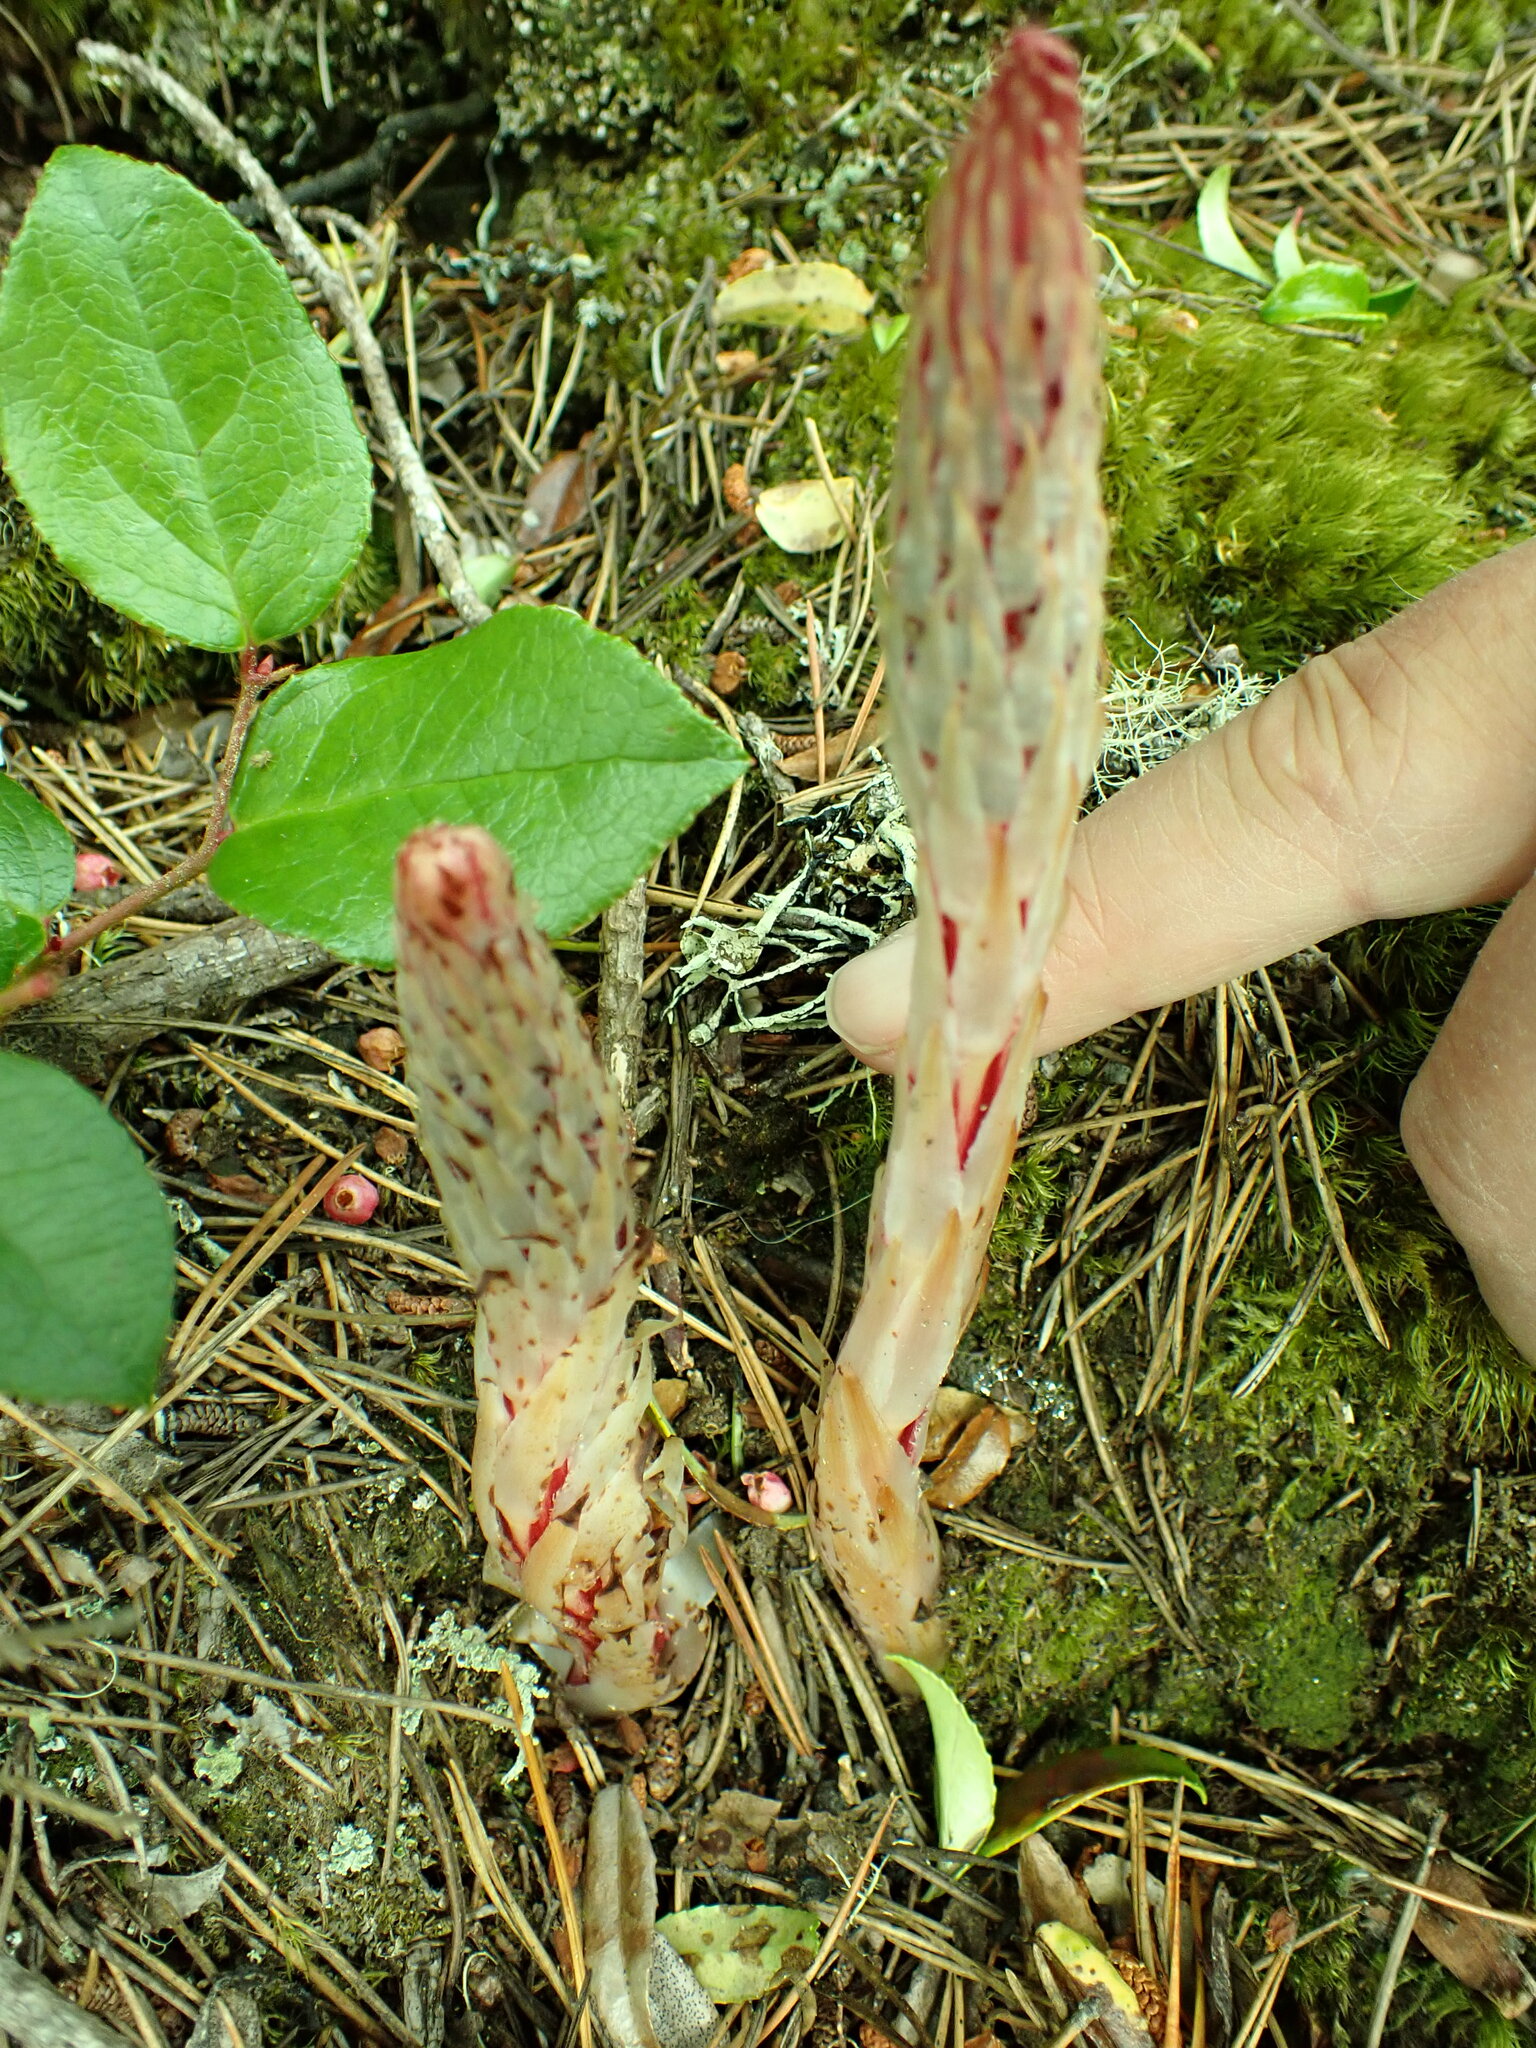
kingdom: Plantae
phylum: Tracheophyta
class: Magnoliopsida
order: Ericales
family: Ericaceae
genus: Allotropa
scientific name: Allotropa virgata
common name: Candy-striped allotropa
